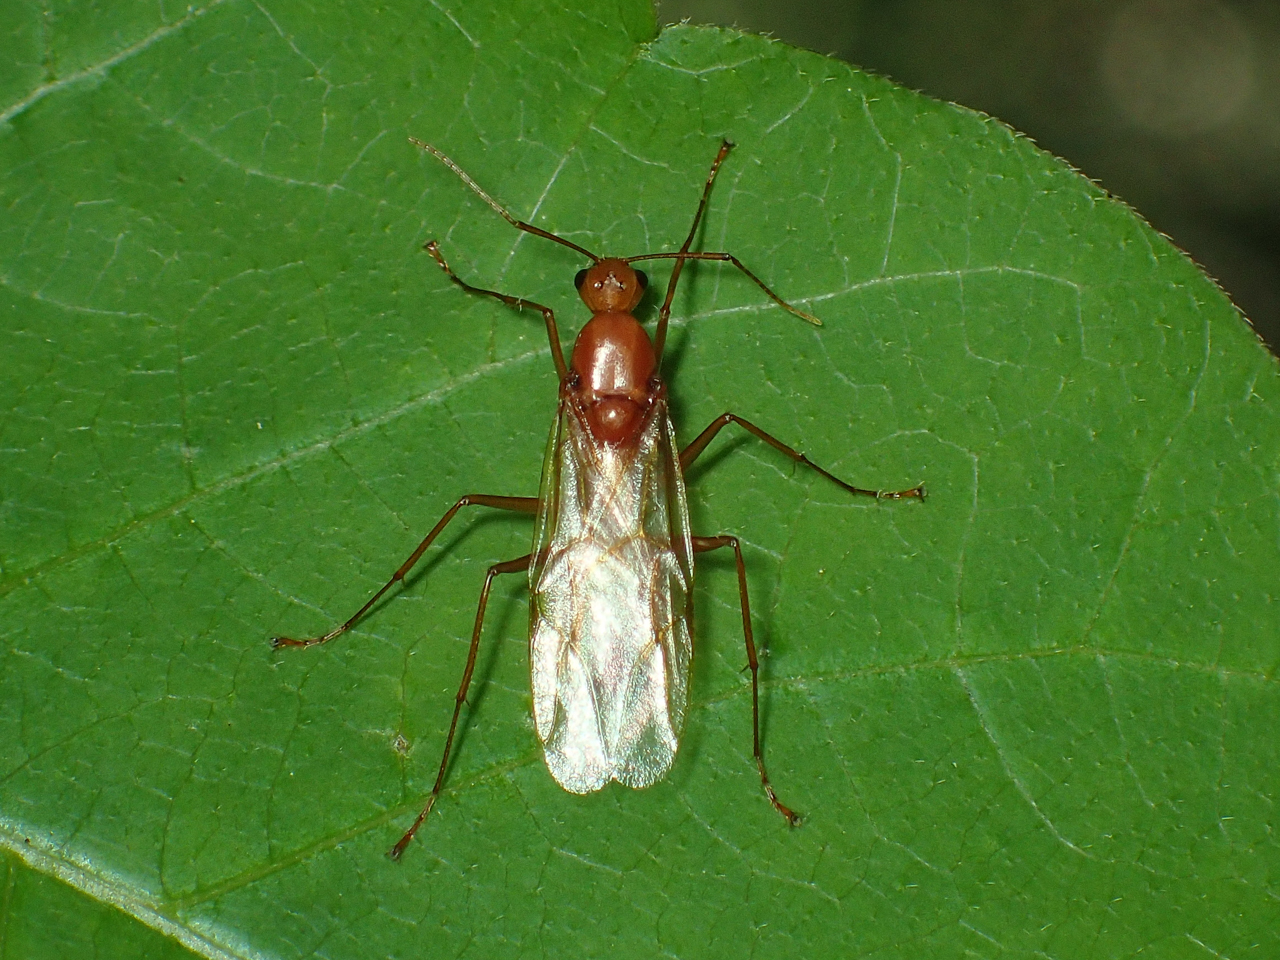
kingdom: Animalia
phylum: Arthropoda
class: Insecta
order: Hymenoptera
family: Formicidae
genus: Camponotus
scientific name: Camponotus castaneus
